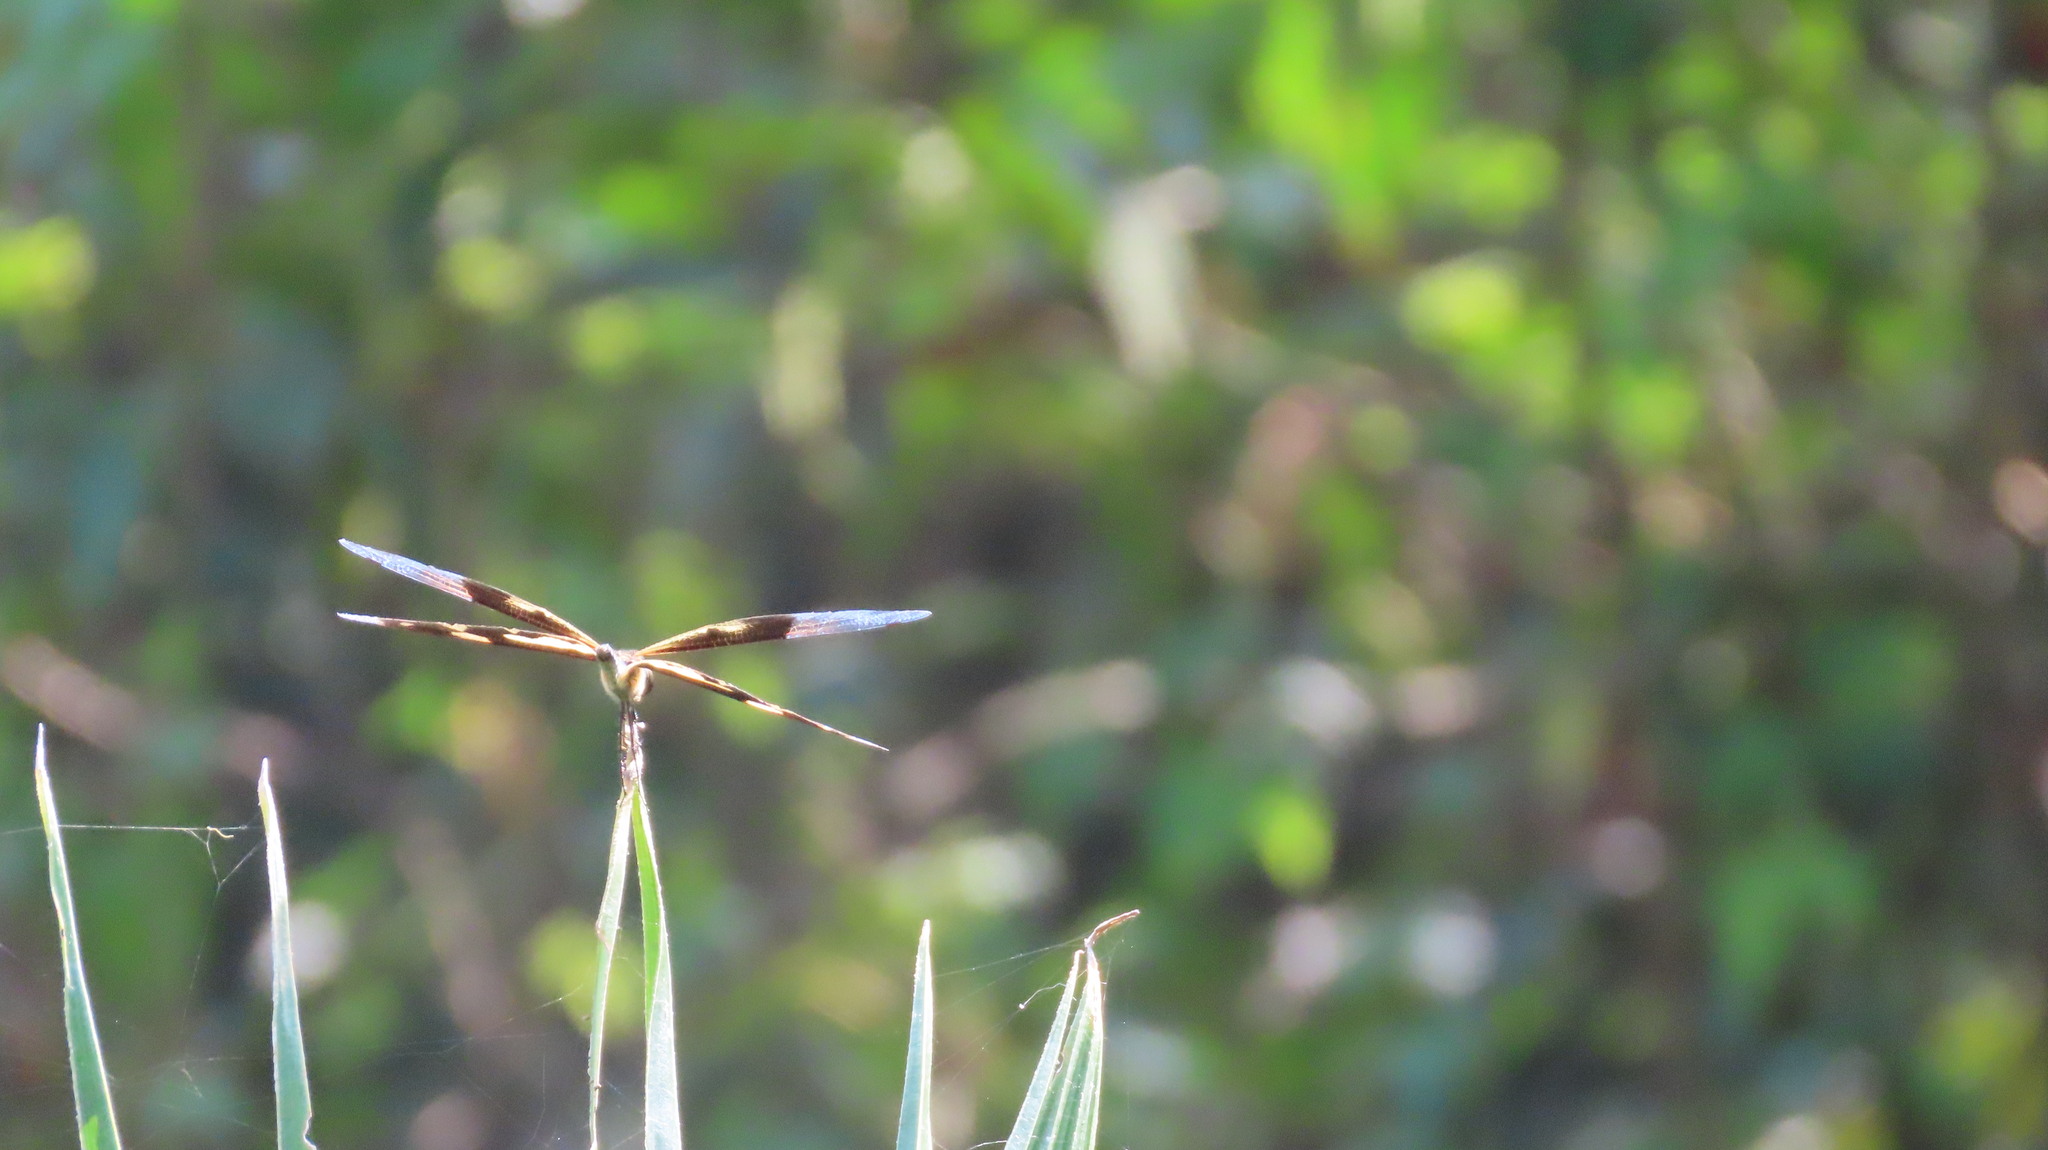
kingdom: Animalia
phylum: Arthropoda
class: Insecta
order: Odonata
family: Libellulidae
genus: Rhyothemis
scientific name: Rhyothemis variegata
